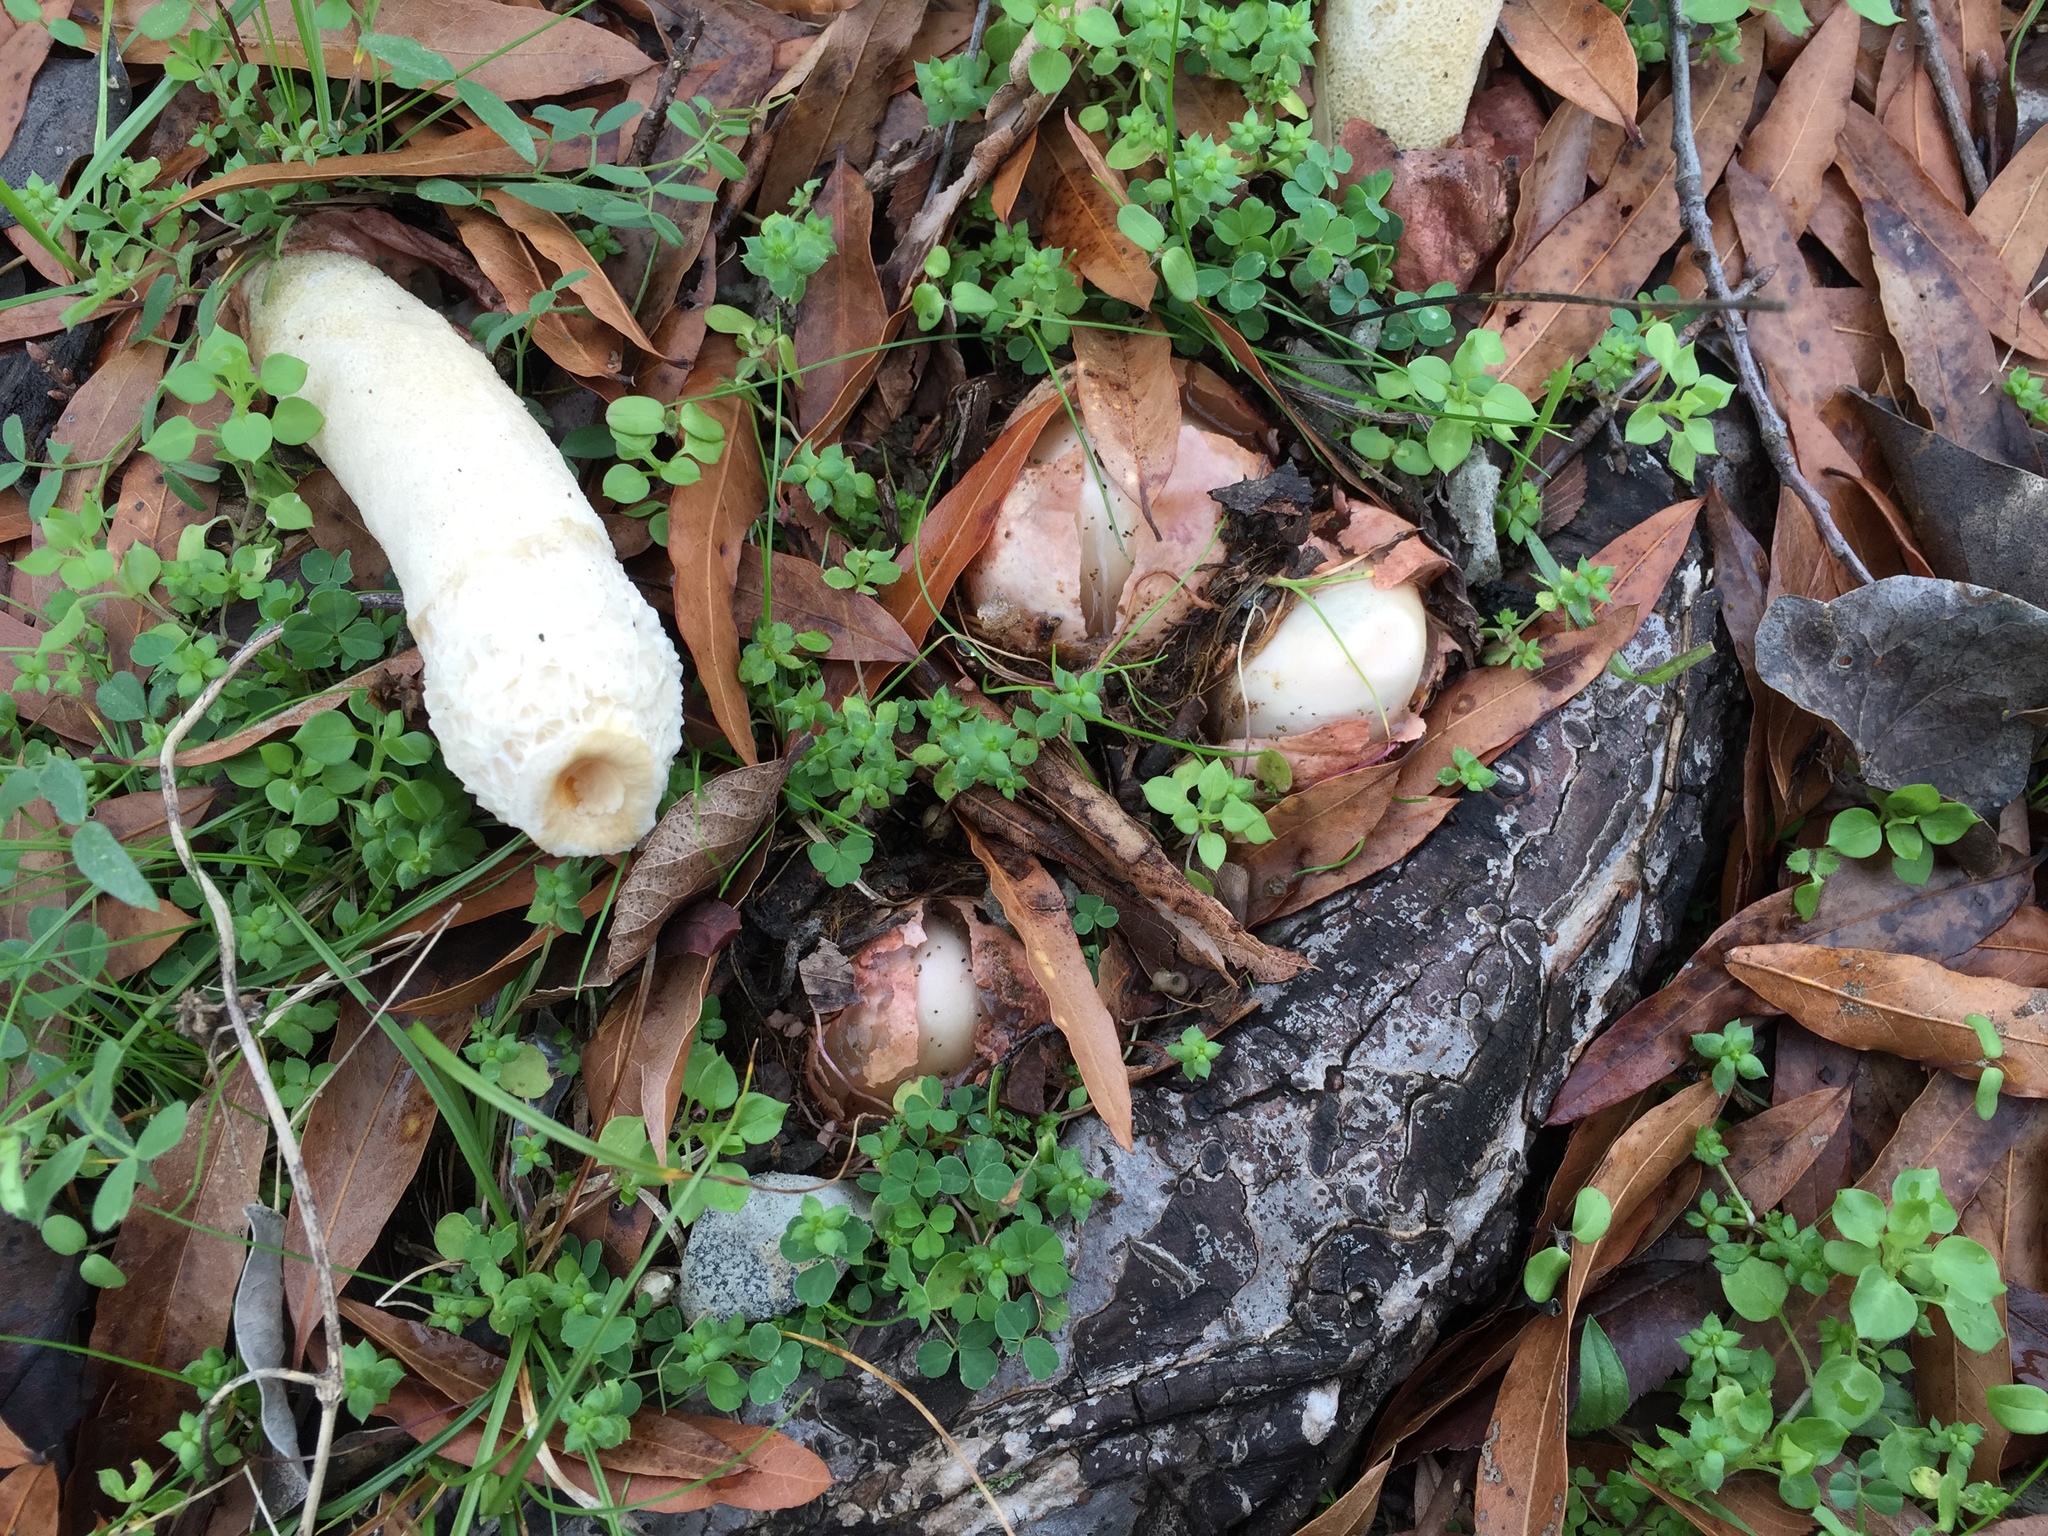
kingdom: Fungi
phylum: Basidiomycota
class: Agaricomycetes
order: Phallales
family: Phallaceae
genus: Phallus
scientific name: Phallus impudicus
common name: Common stinkhorn
